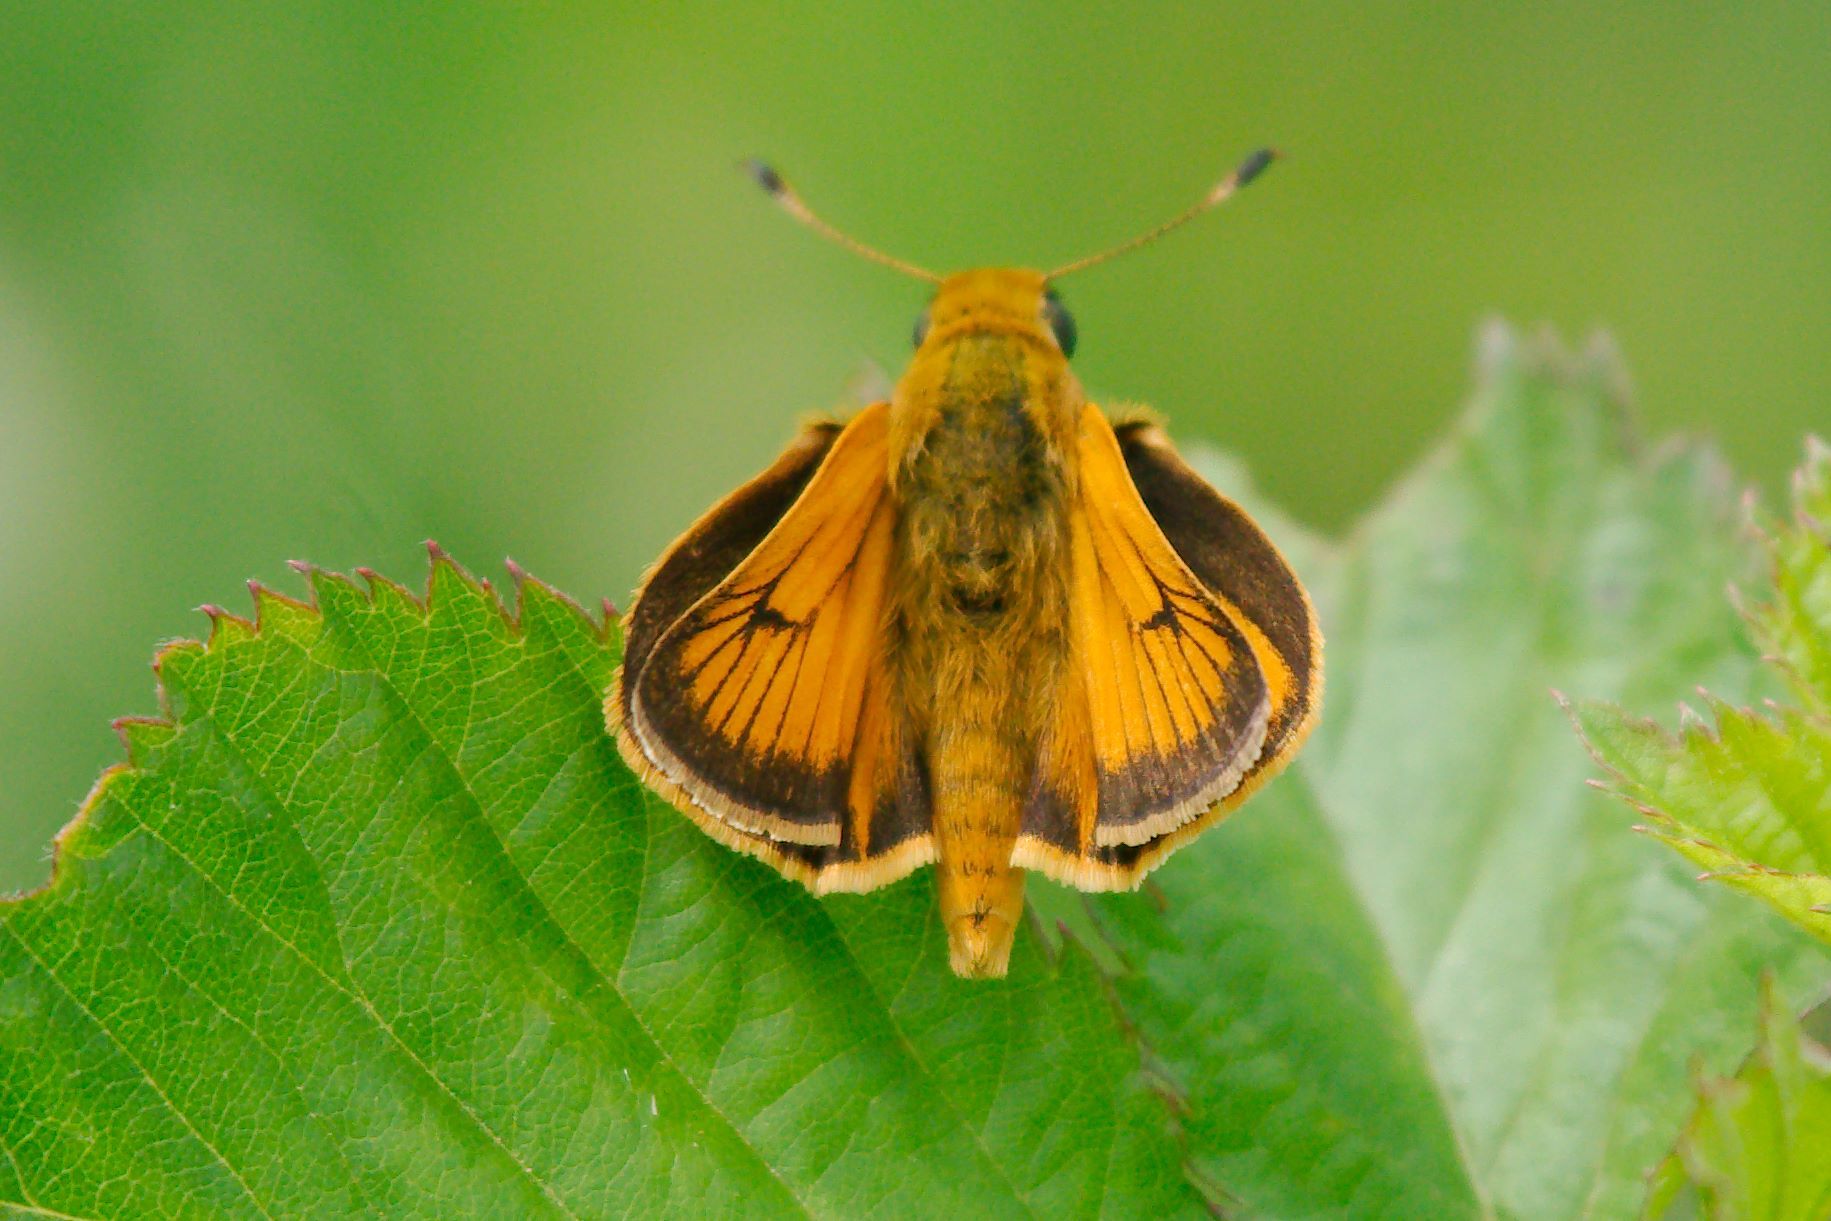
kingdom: Animalia
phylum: Arthropoda
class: Insecta
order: Lepidoptera
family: Hesperiidae
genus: Atrytone
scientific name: Atrytone delaware
